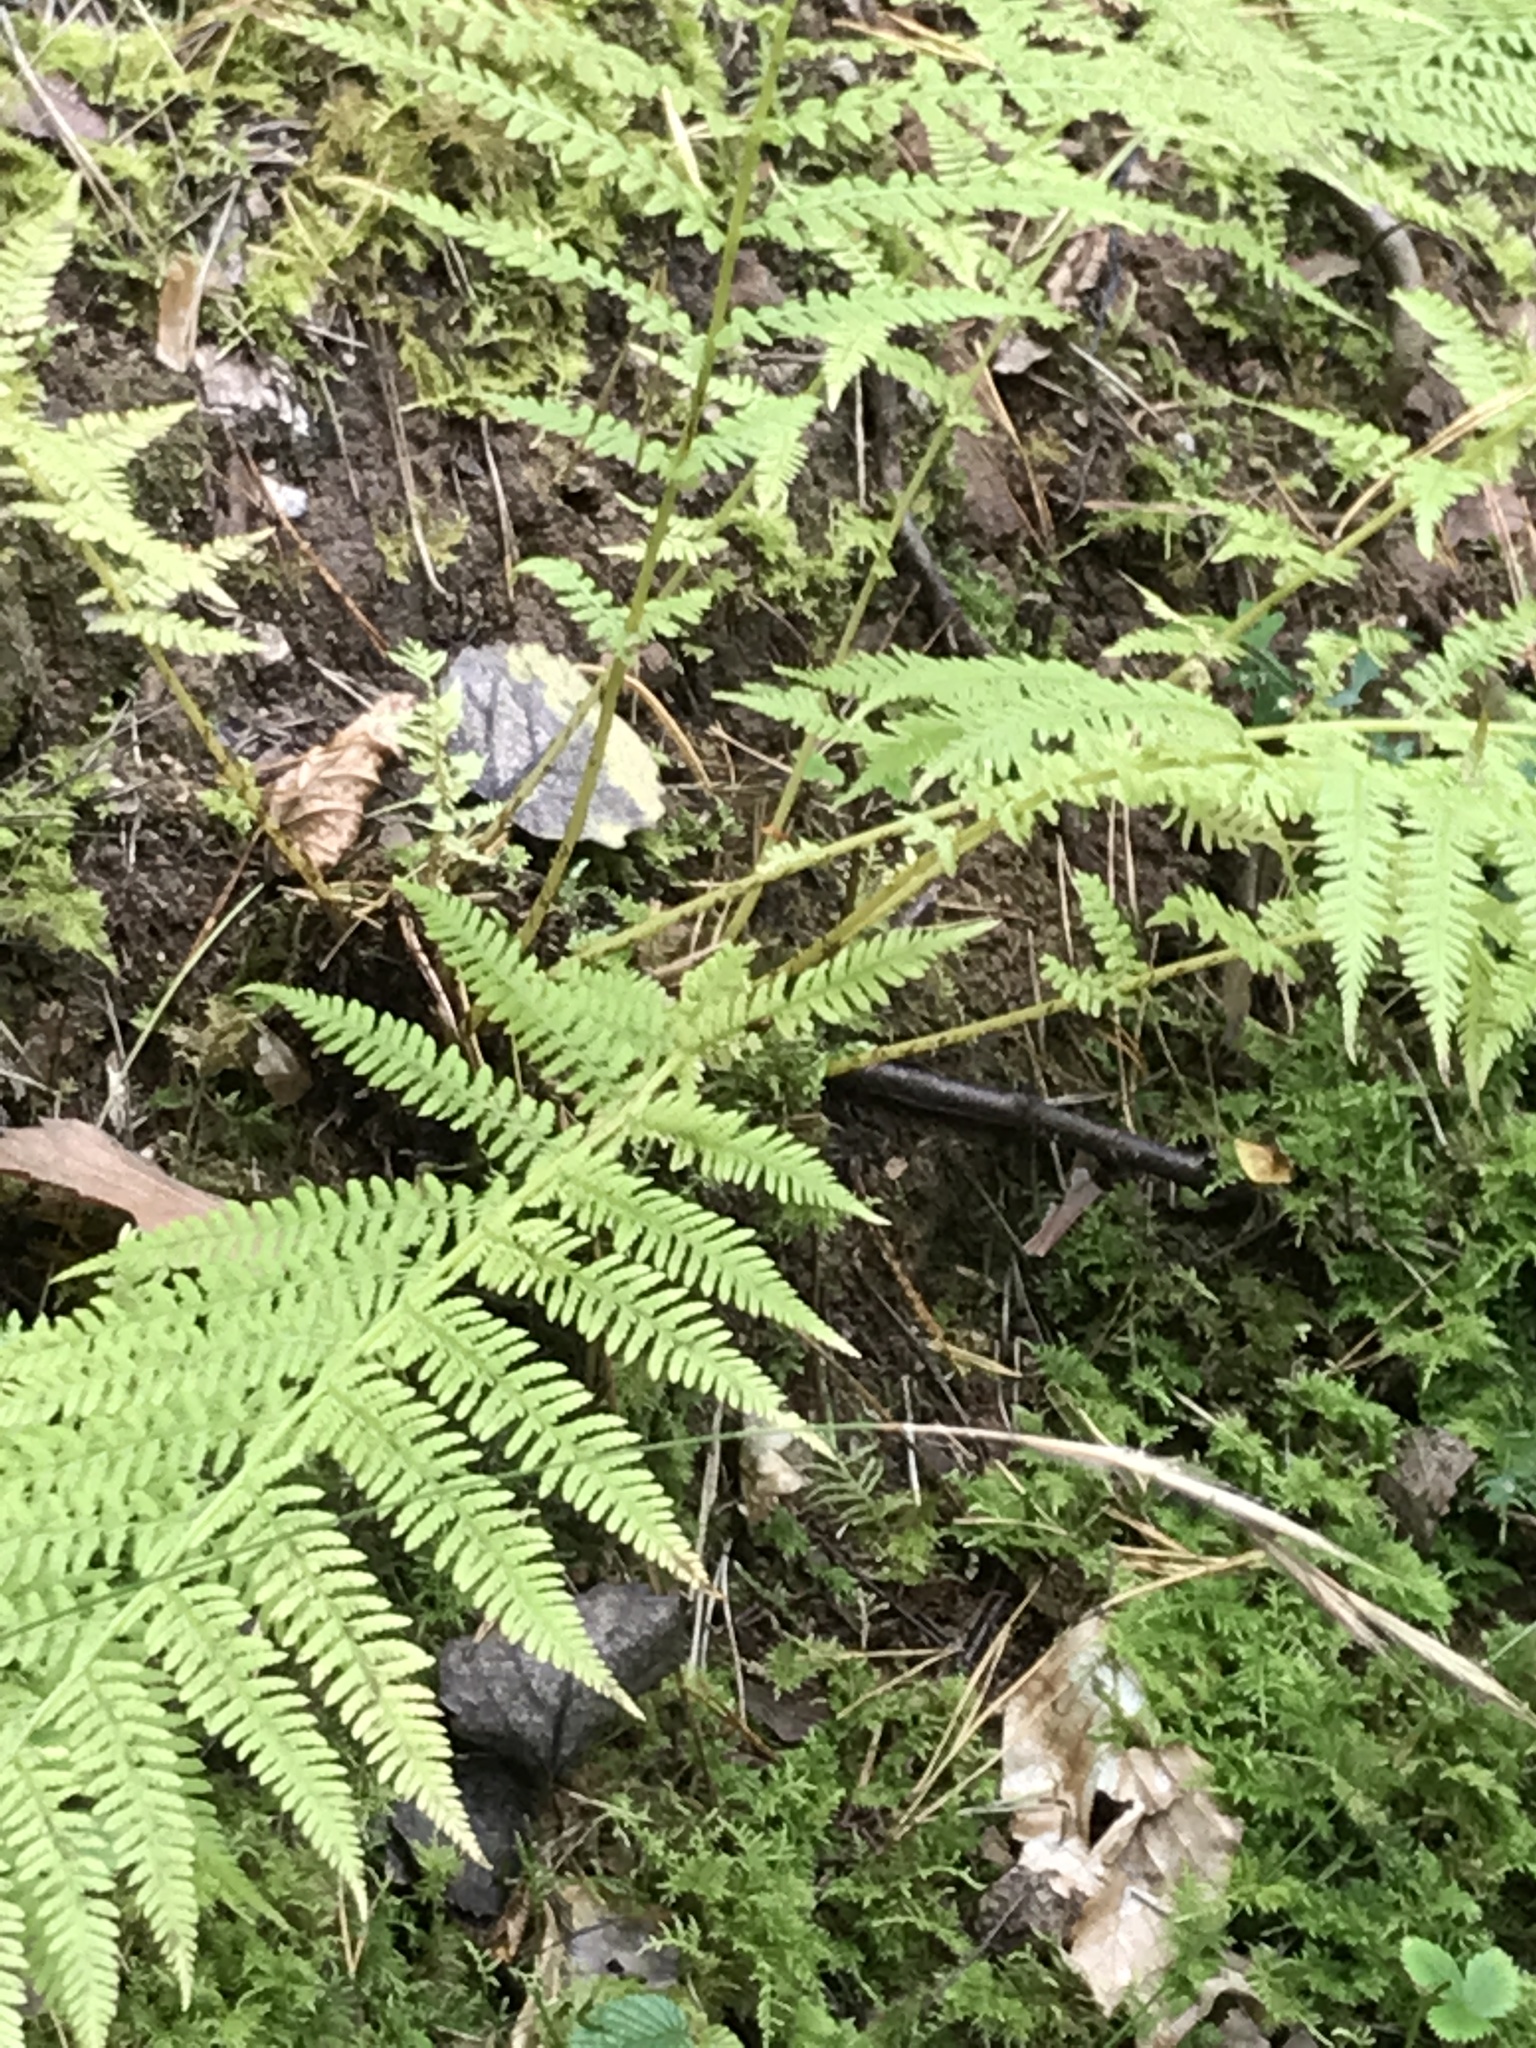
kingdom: Plantae
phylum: Tracheophyta
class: Polypodiopsida
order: Polypodiales
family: Athyriaceae
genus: Athyrium
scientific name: Athyrium filix-femina
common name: Lady fern
